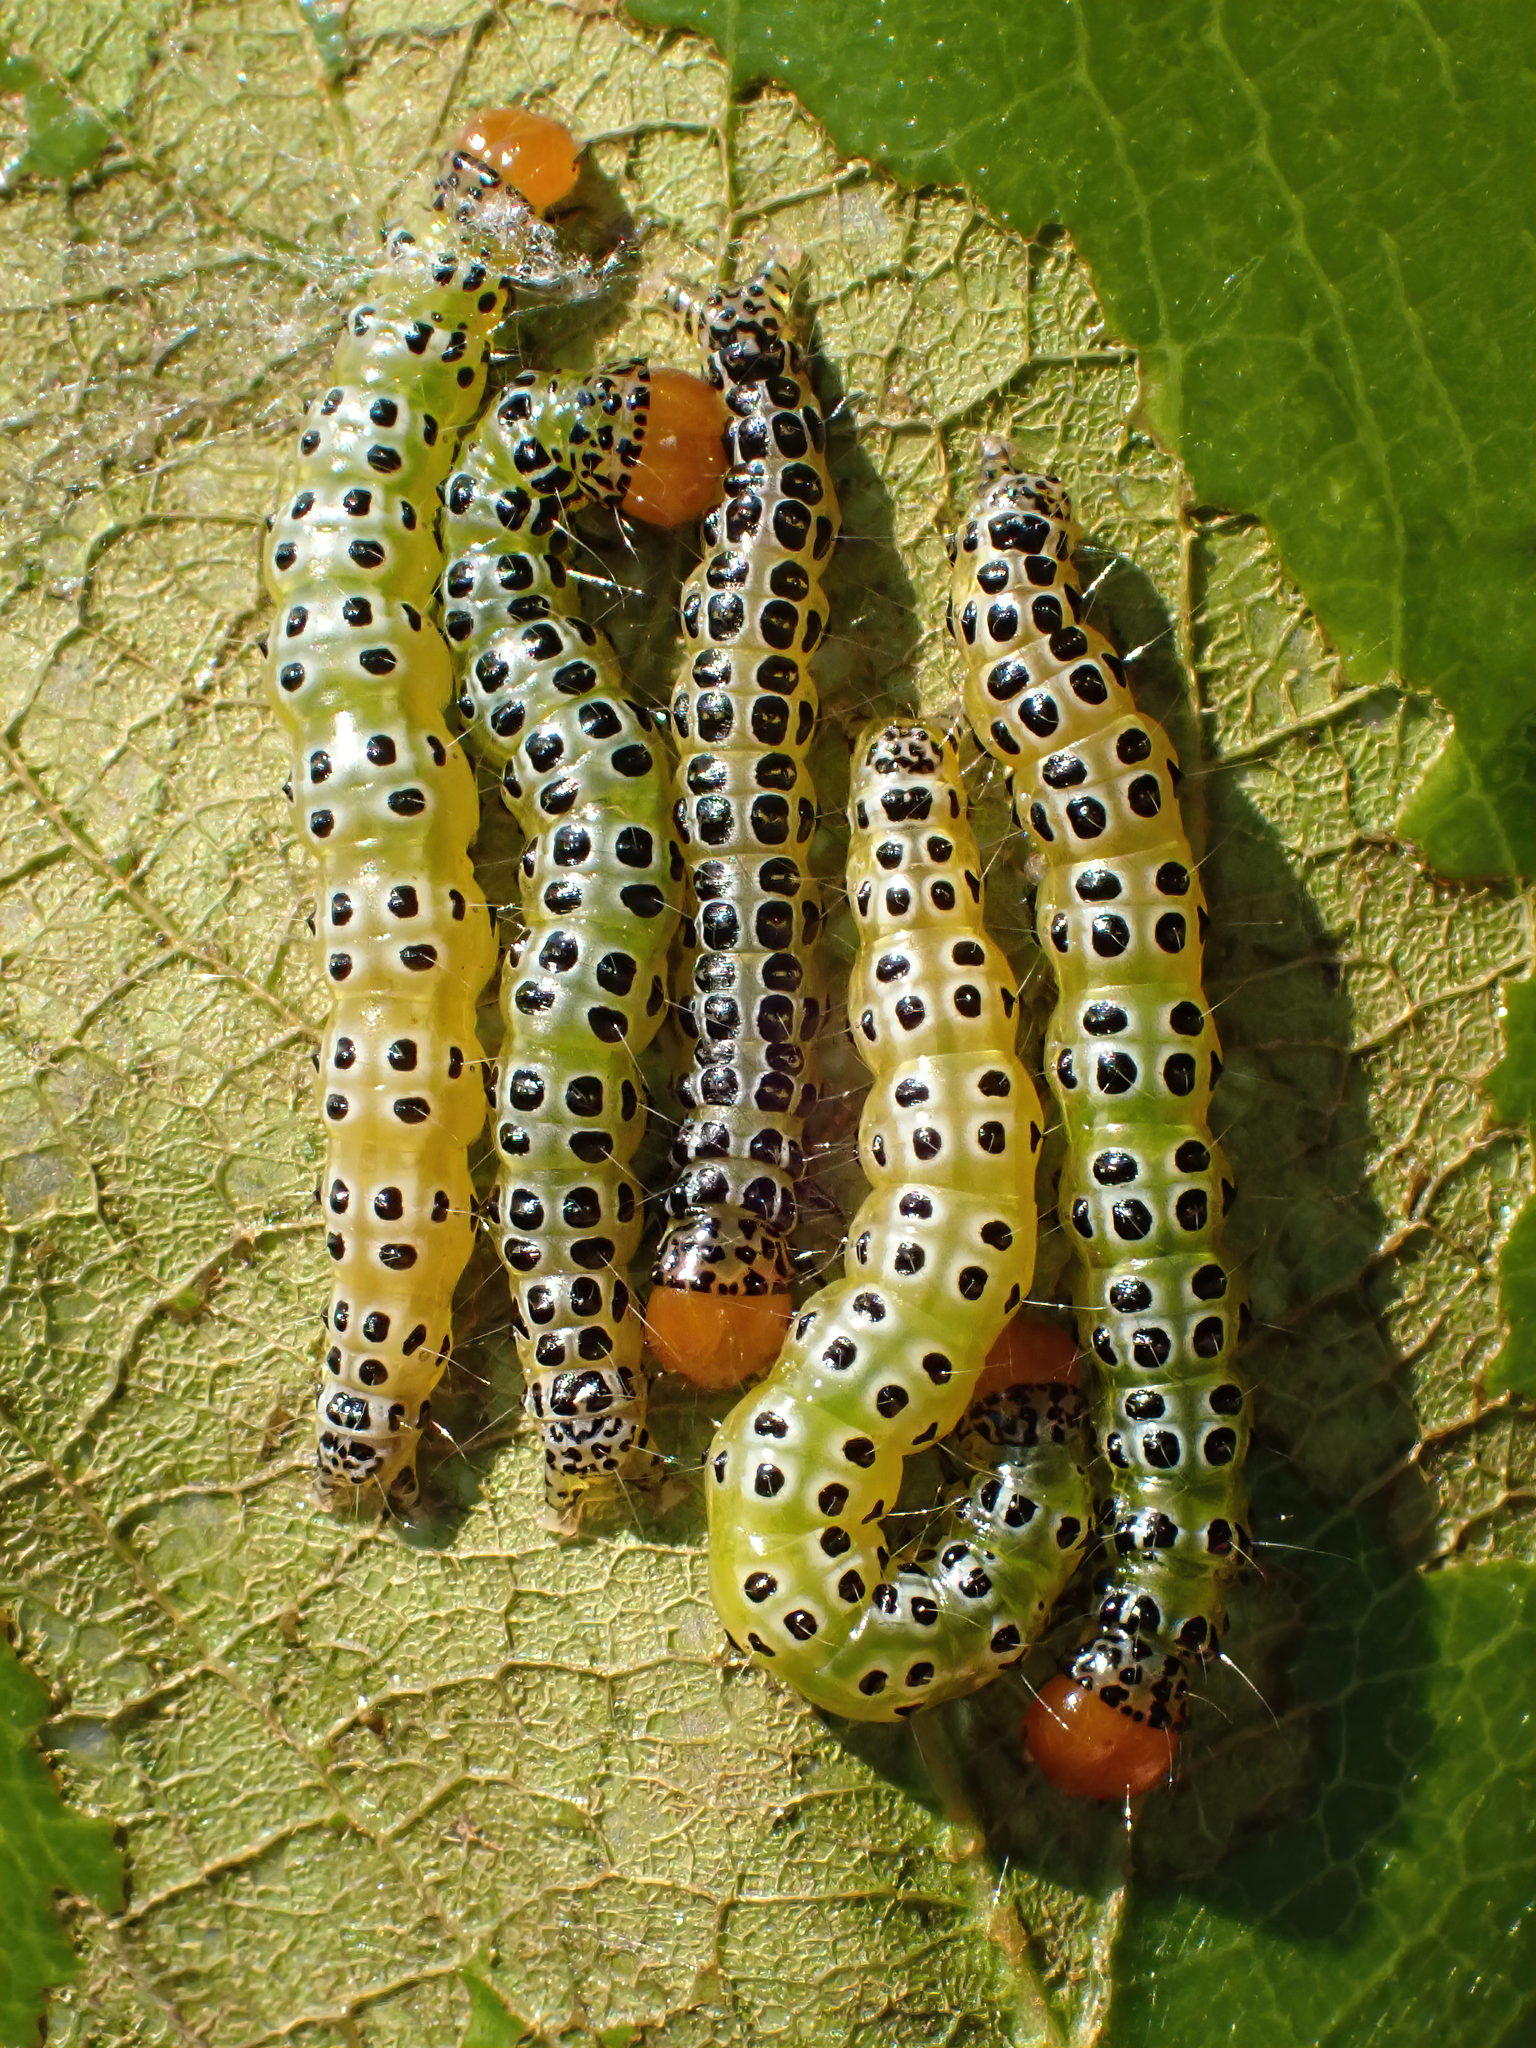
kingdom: Animalia
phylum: Arthropoda
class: Insecta
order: Lepidoptera
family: Crambidae
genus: Epicorsia
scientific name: Epicorsia oedipodalis
